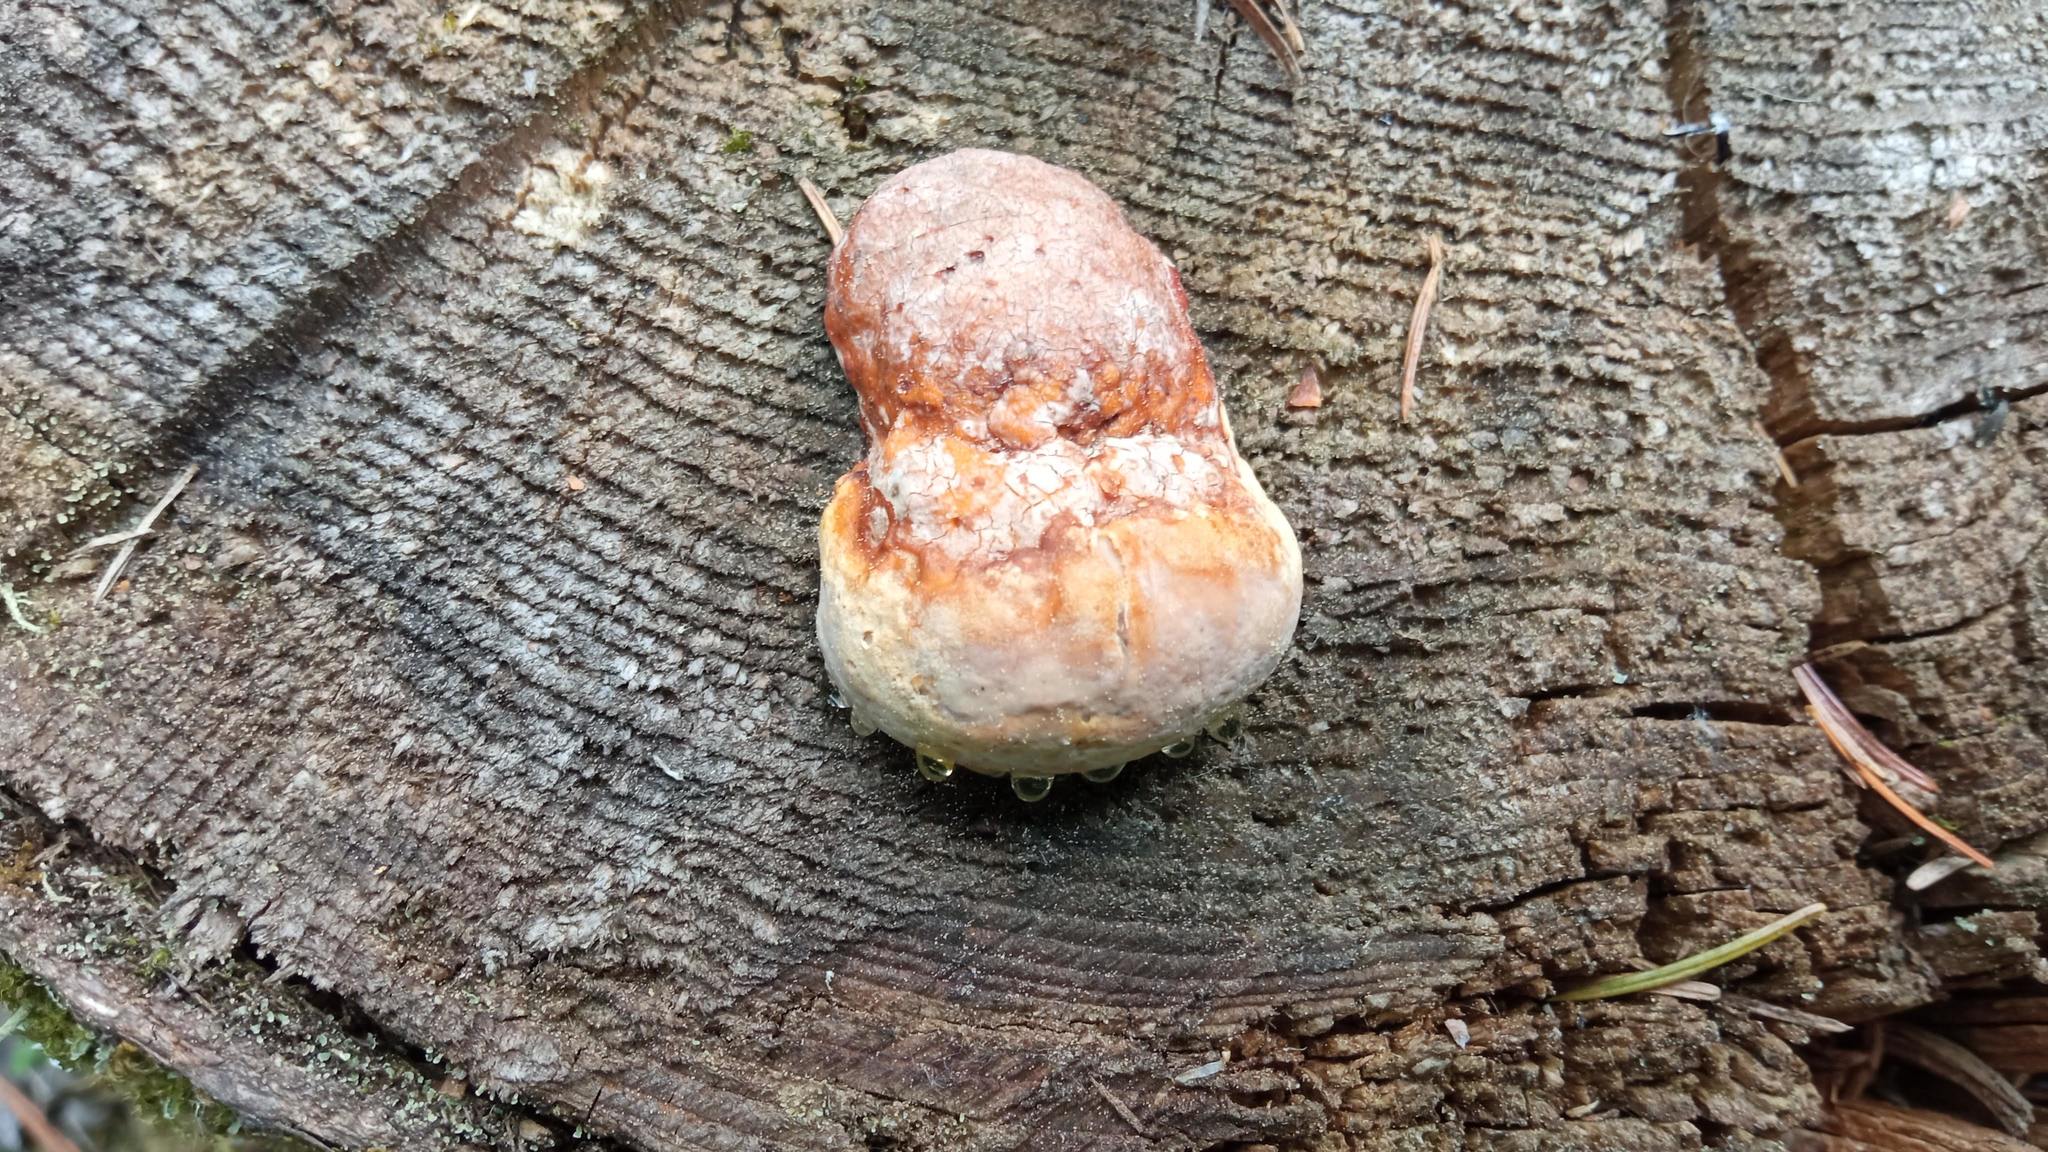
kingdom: Fungi
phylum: Basidiomycota
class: Agaricomycetes
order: Polyporales
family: Fomitopsidaceae
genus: Fomitopsis
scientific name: Fomitopsis pinicola
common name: Red-belted bracket
